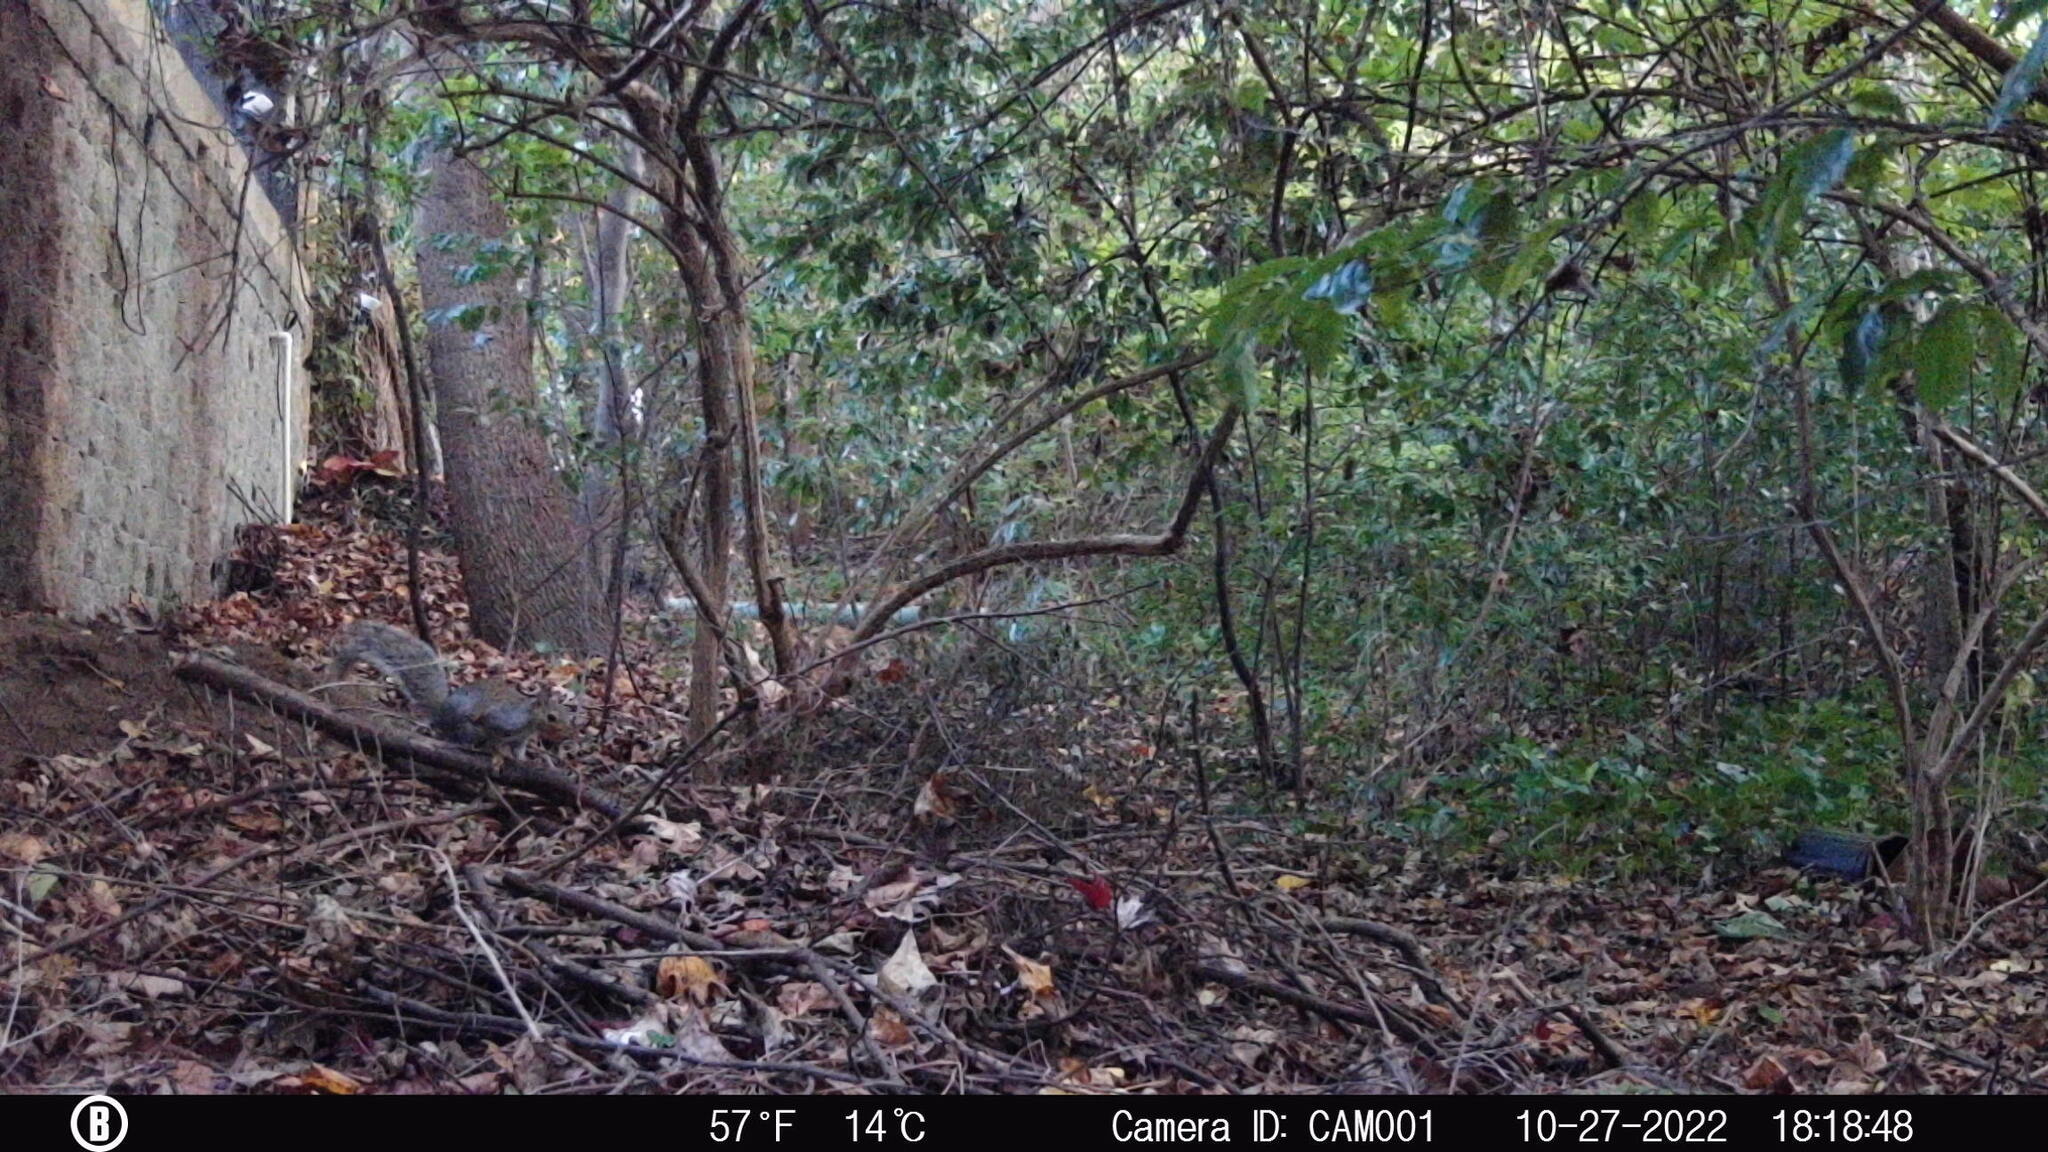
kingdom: Animalia
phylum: Chordata
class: Mammalia
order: Rodentia
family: Sciuridae
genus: Sciurus
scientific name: Sciurus carolinensis
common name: Eastern gray squirrel
